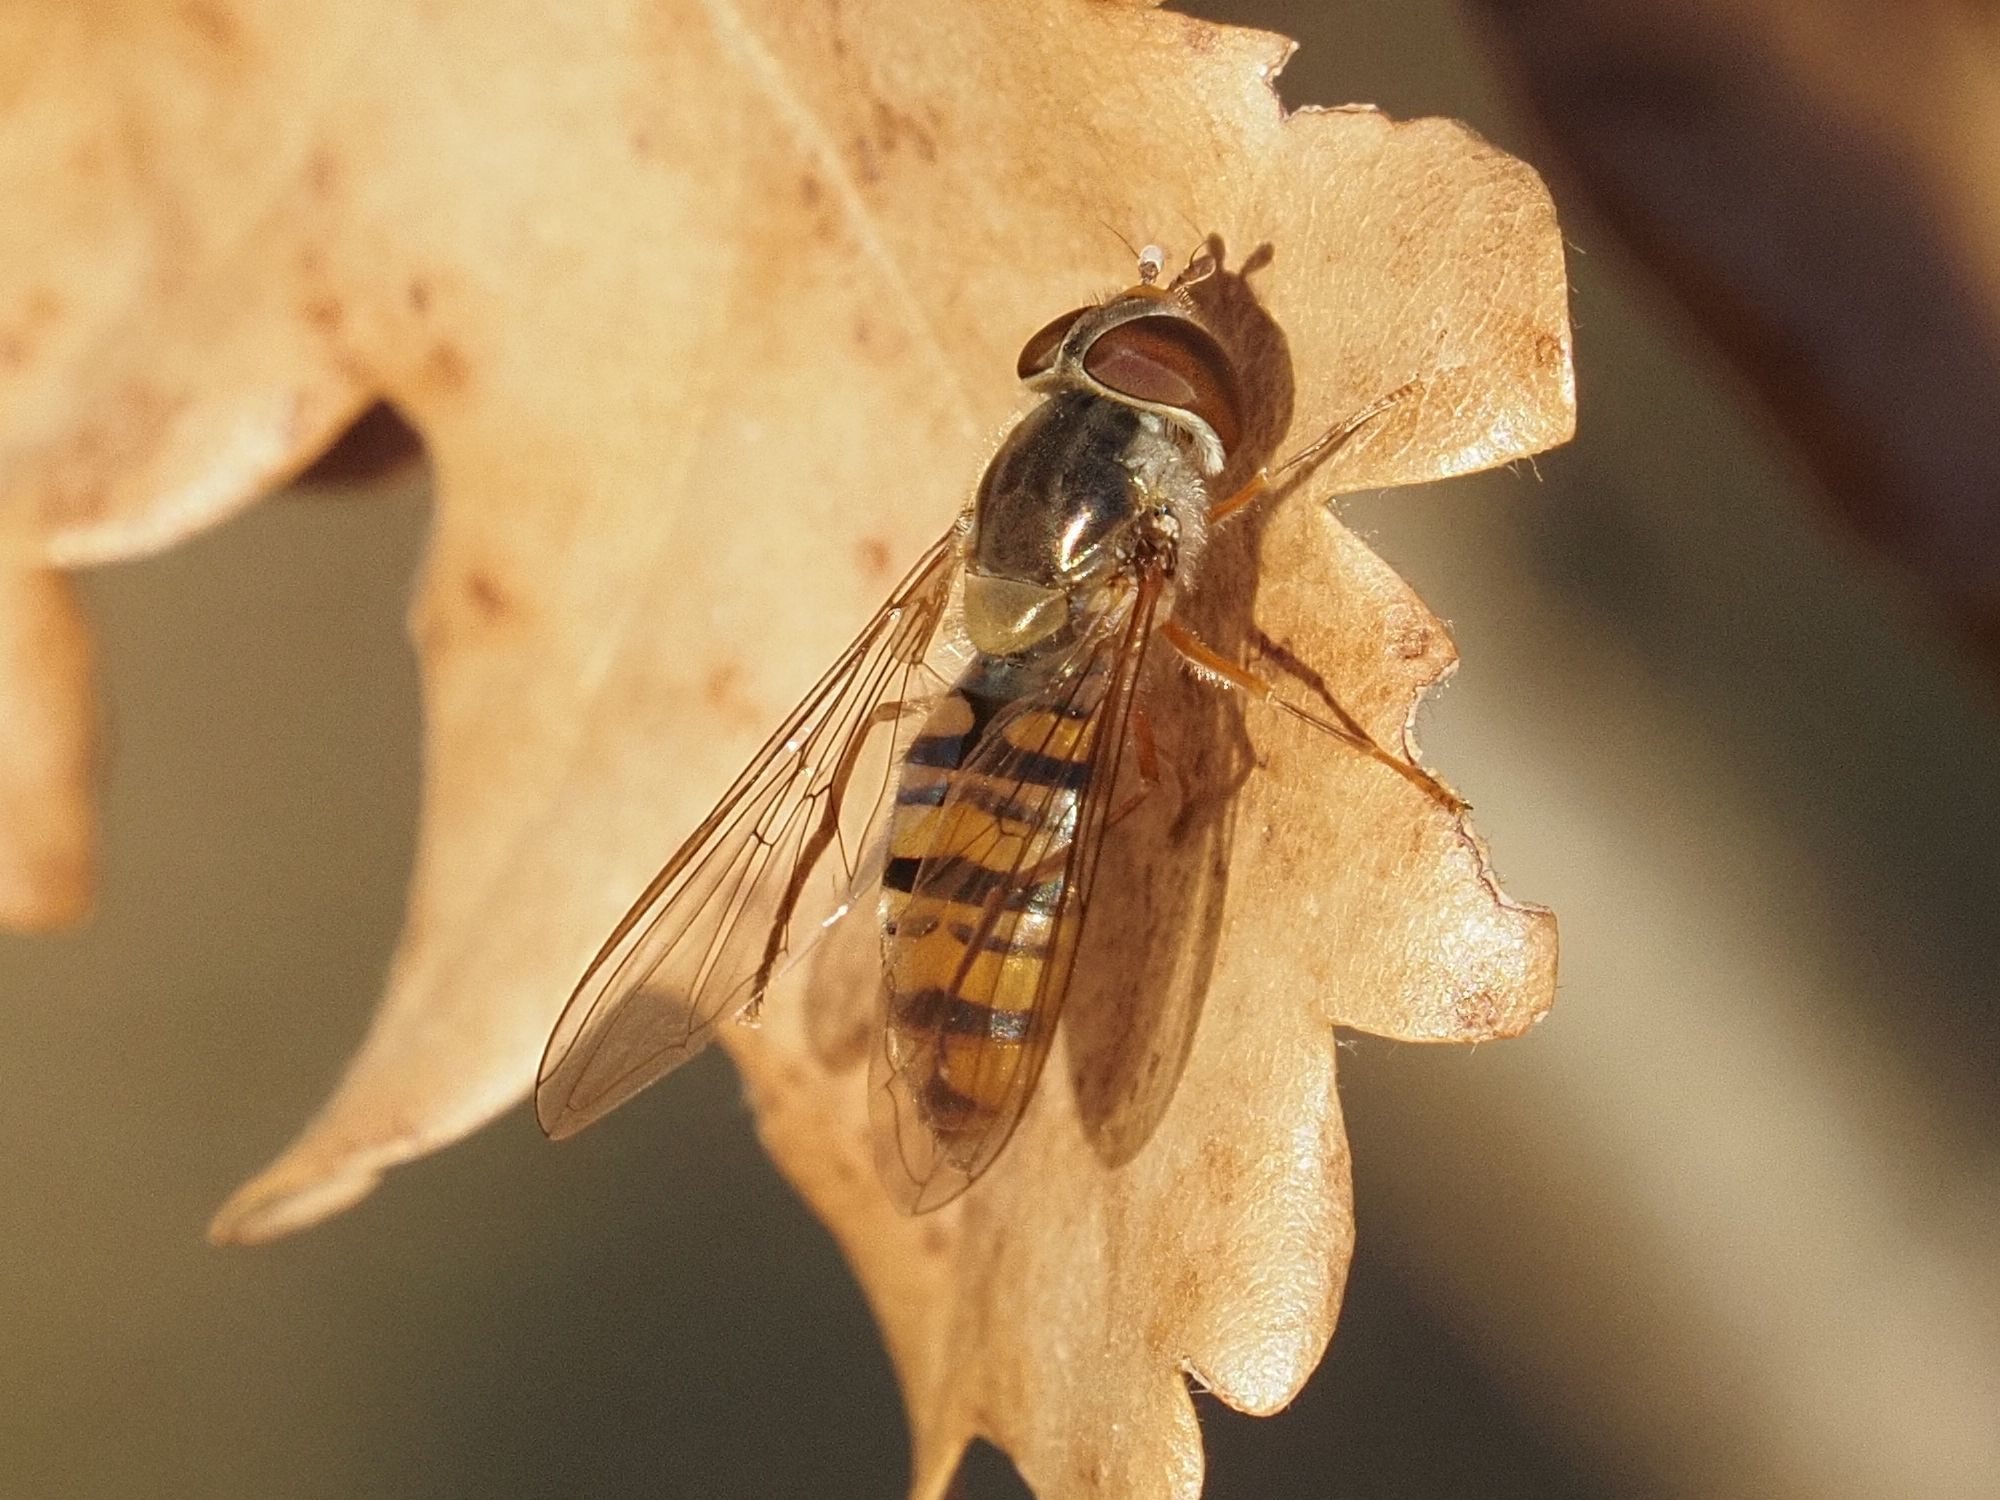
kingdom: Animalia
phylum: Arthropoda
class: Insecta
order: Diptera
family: Syrphidae
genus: Episyrphus
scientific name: Episyrphus balteatus
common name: Marmalade hoverfly
